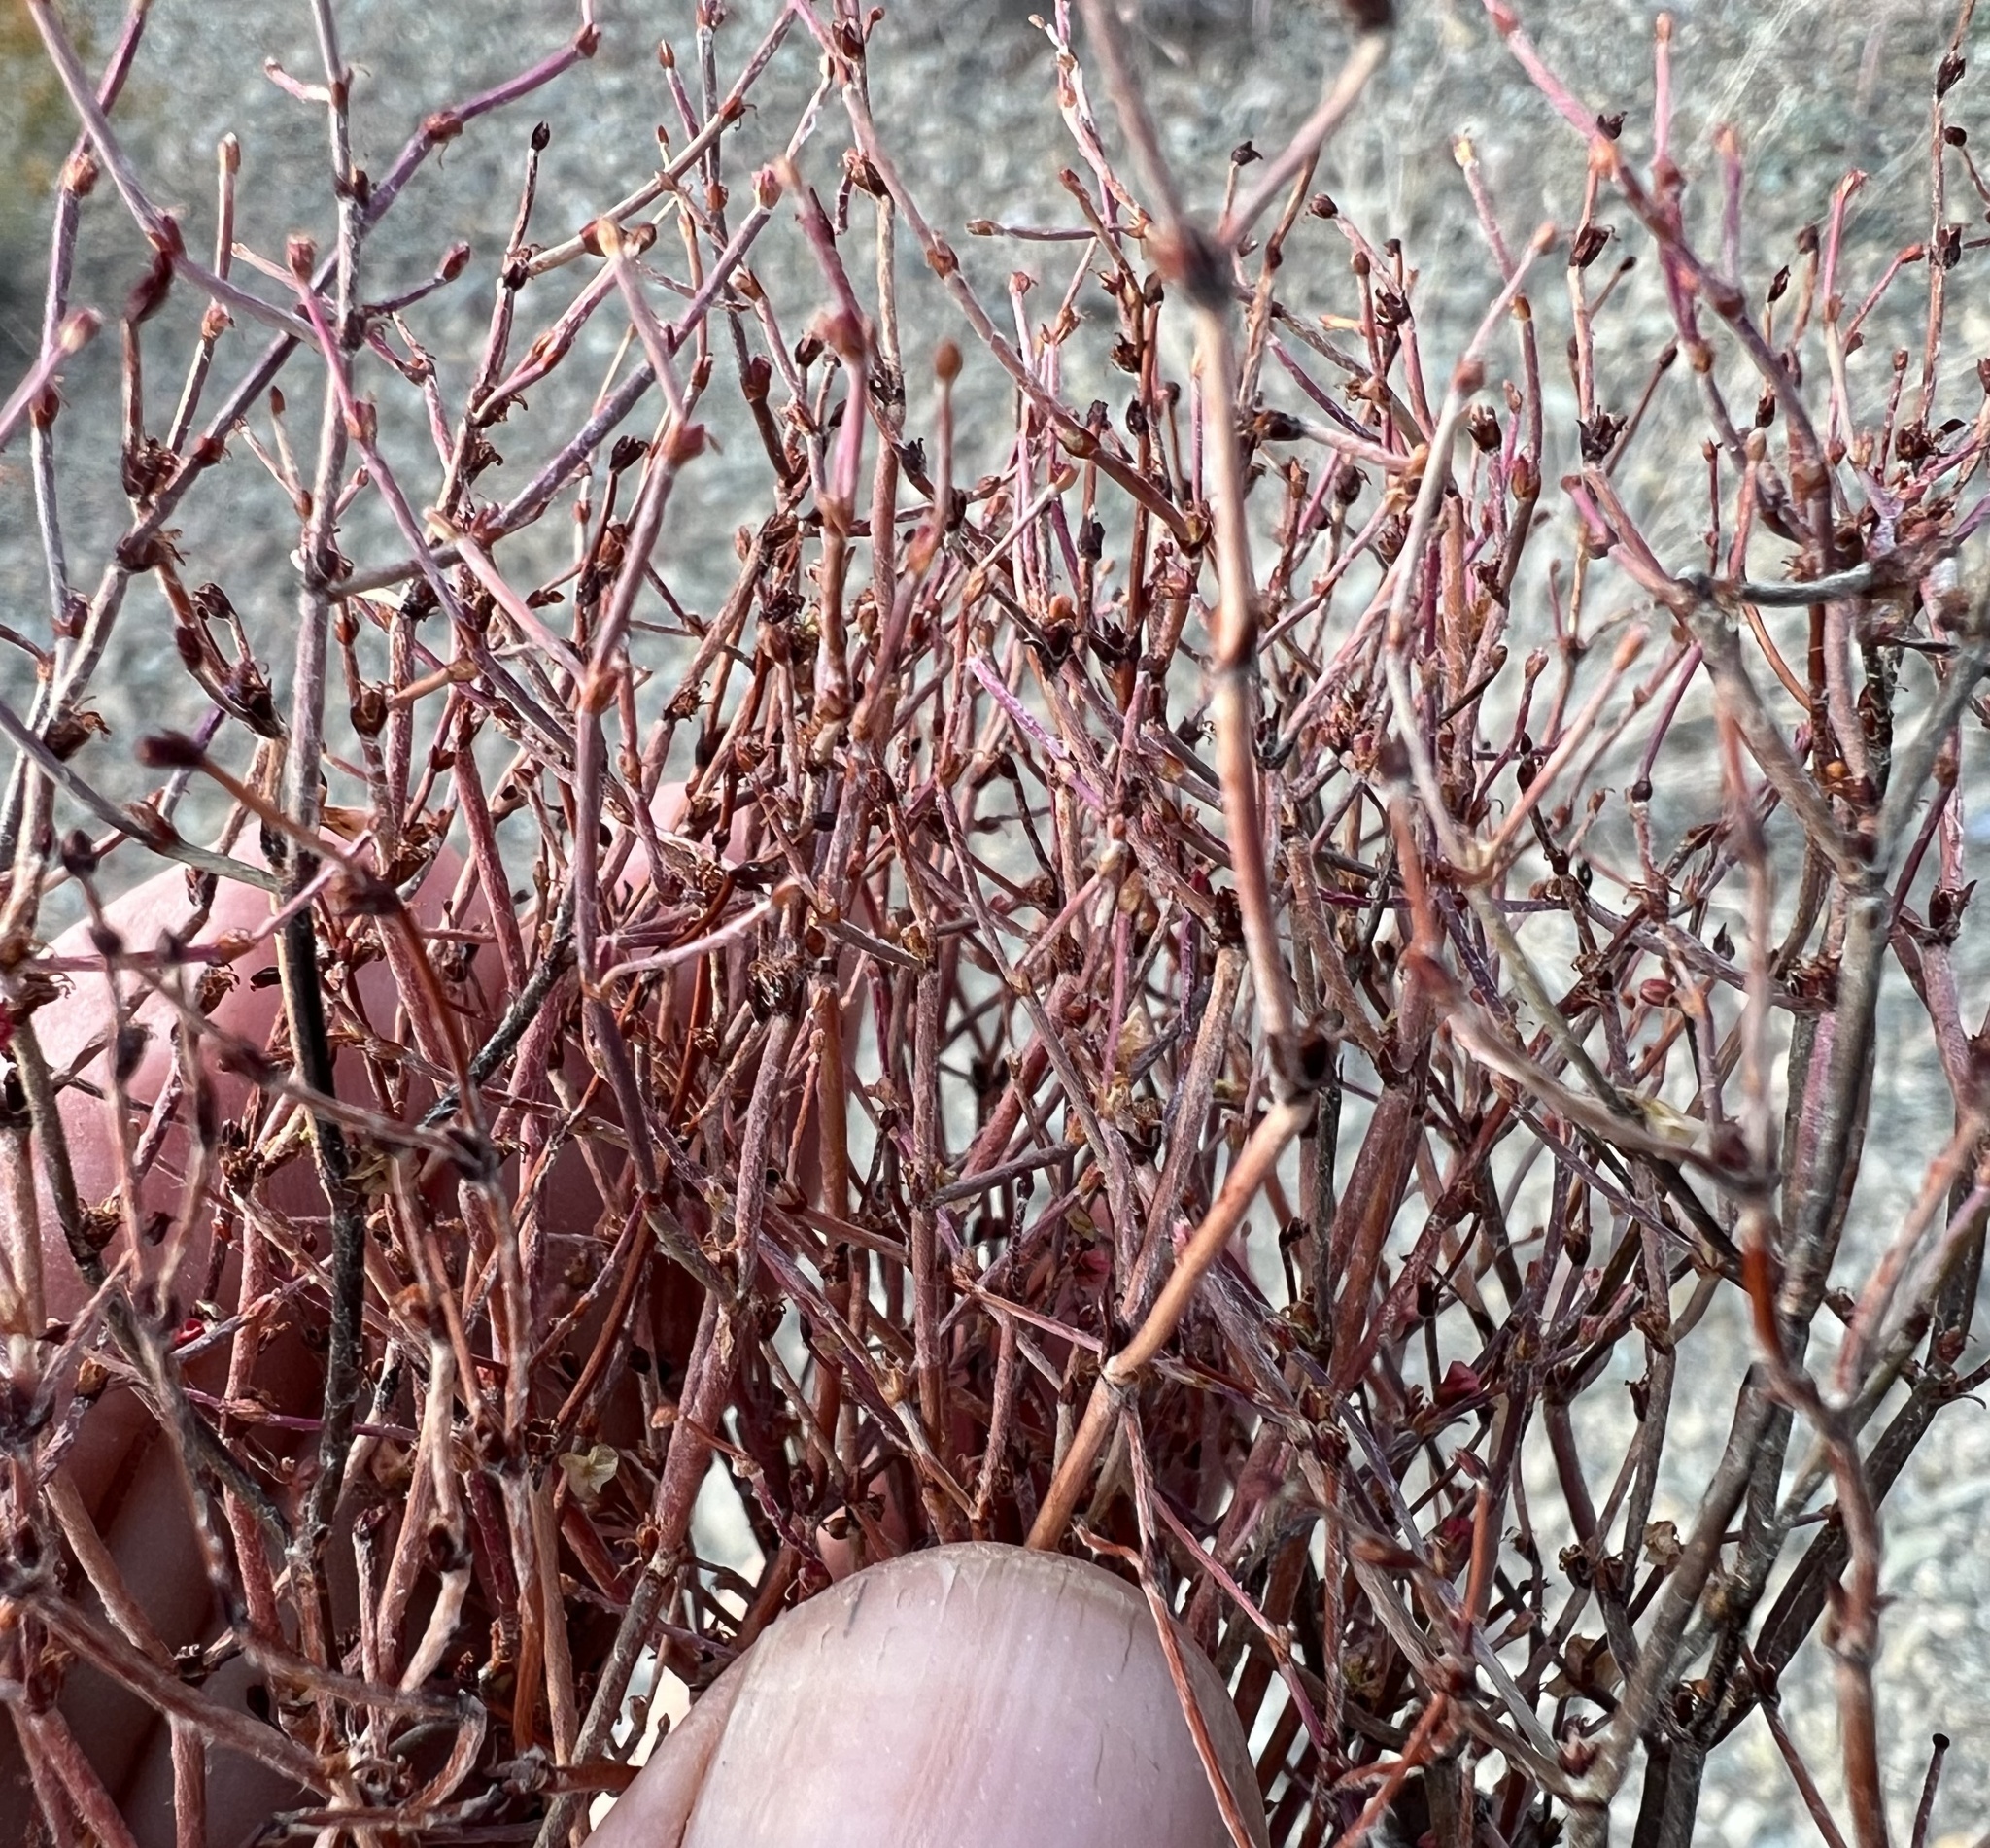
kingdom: Plantae
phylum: Tracheophyta
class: Magnoliopsida
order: Caryophyllales
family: Polygonaceae
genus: Eriogonum
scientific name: Eriogonum nidularium
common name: Bird's-nest wild buckwheat
